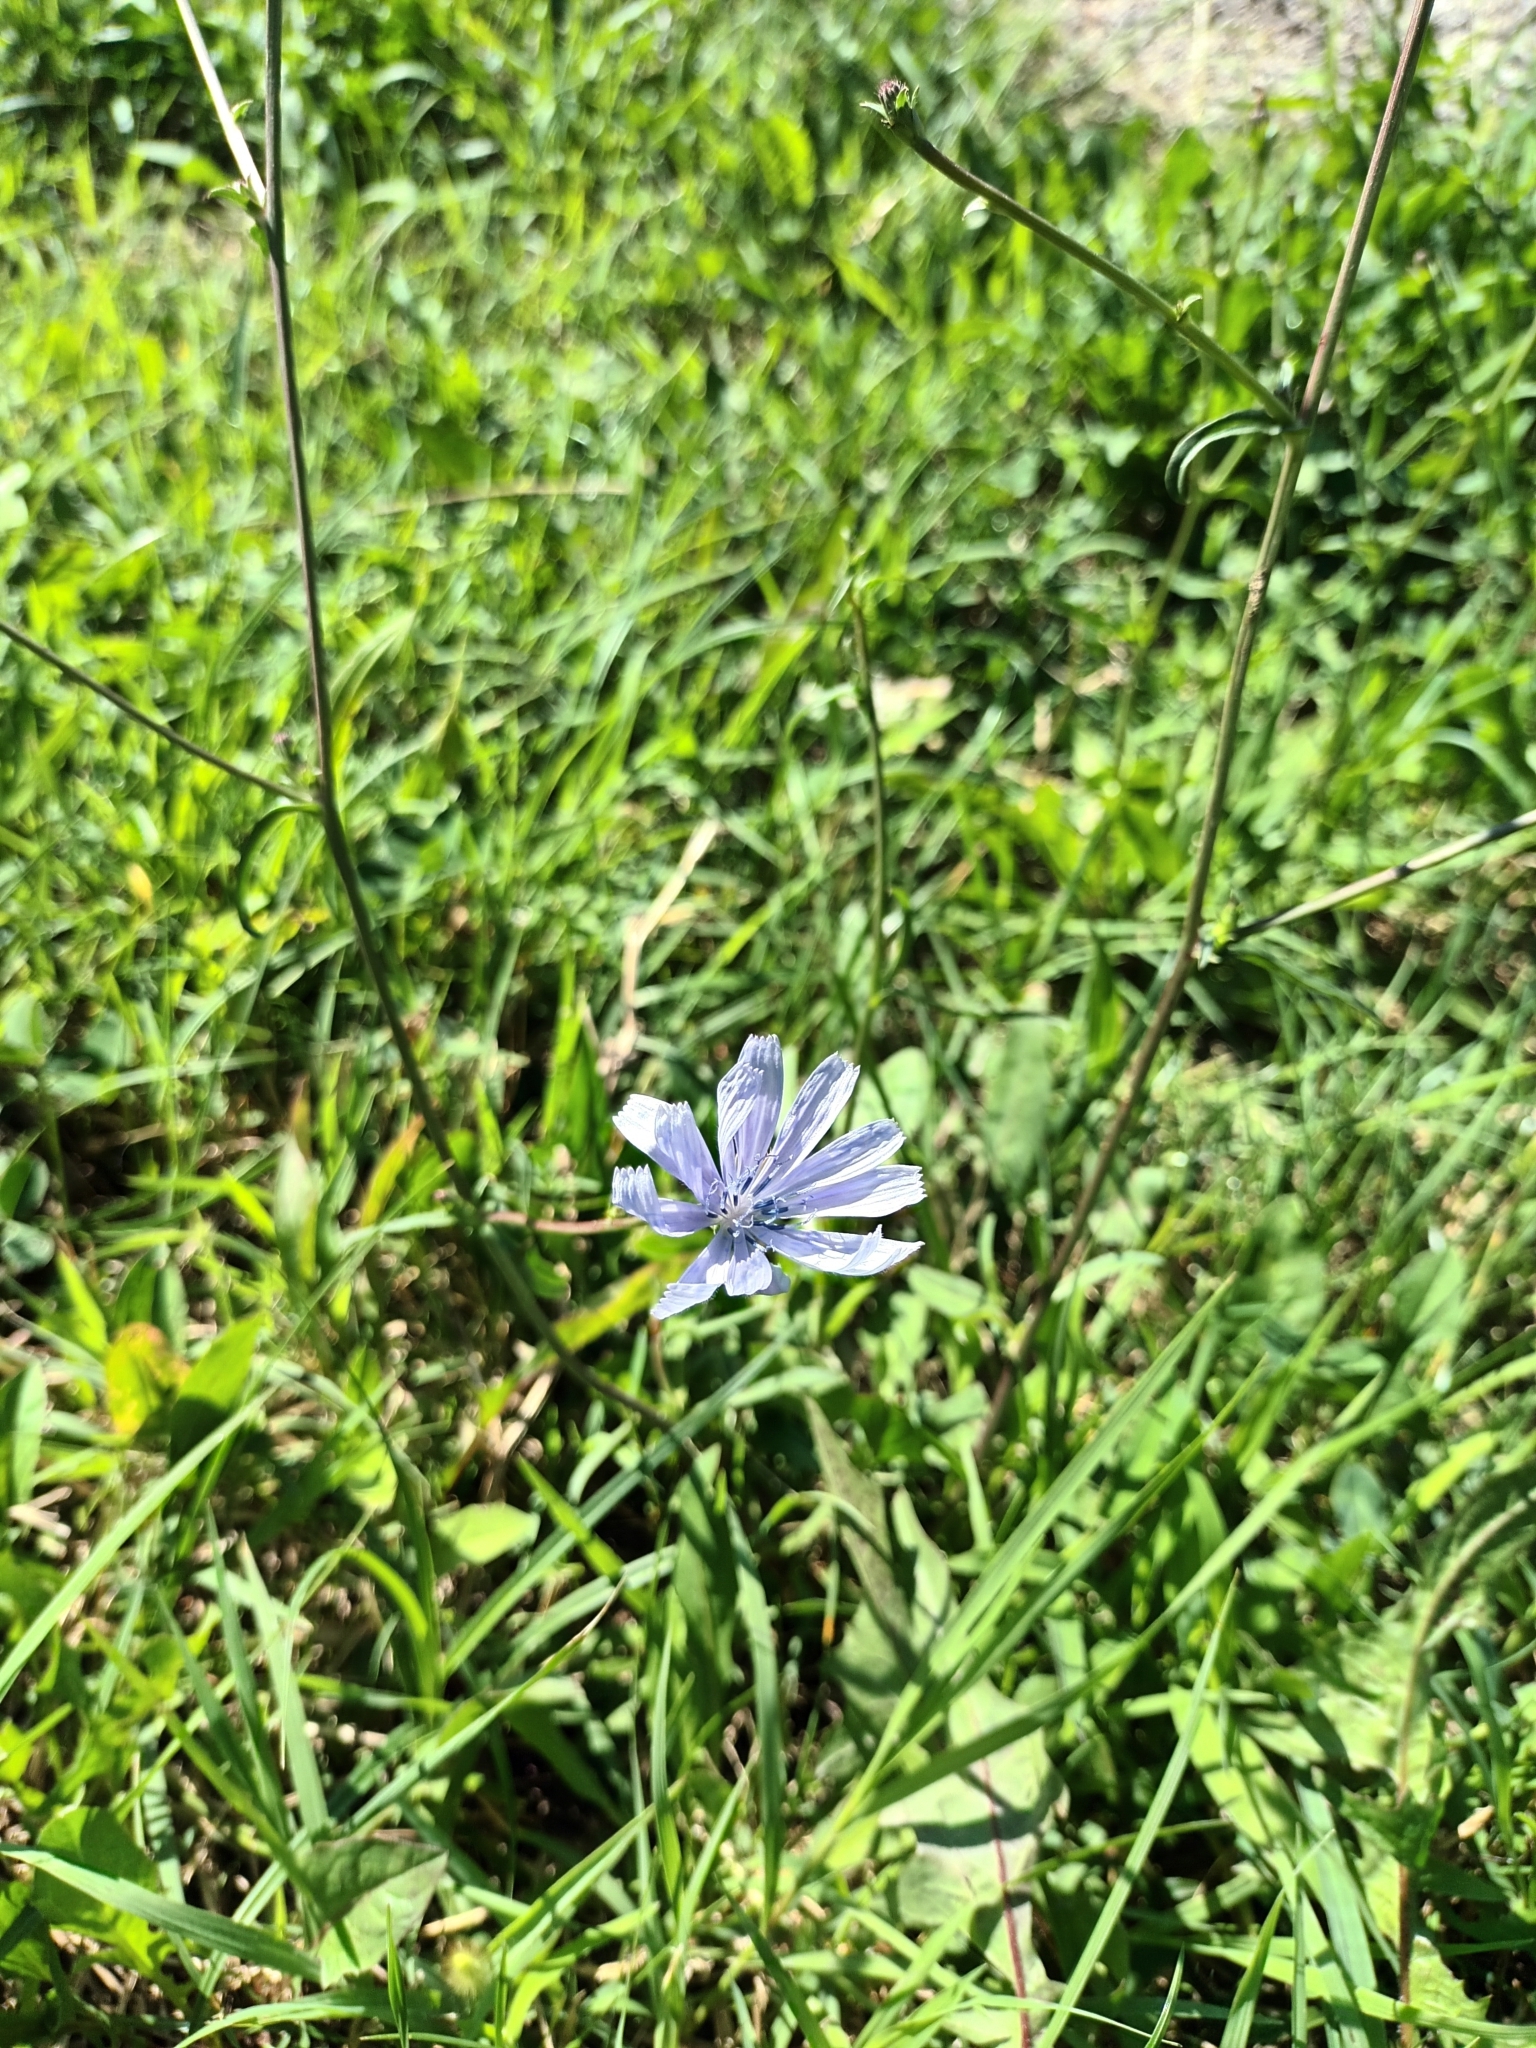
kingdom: Plantae
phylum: Tracheophyta
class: Magnoliopsida
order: Asterales
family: Asteraceae
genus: Cichorium
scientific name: Cichorium intybus
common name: Chicory
